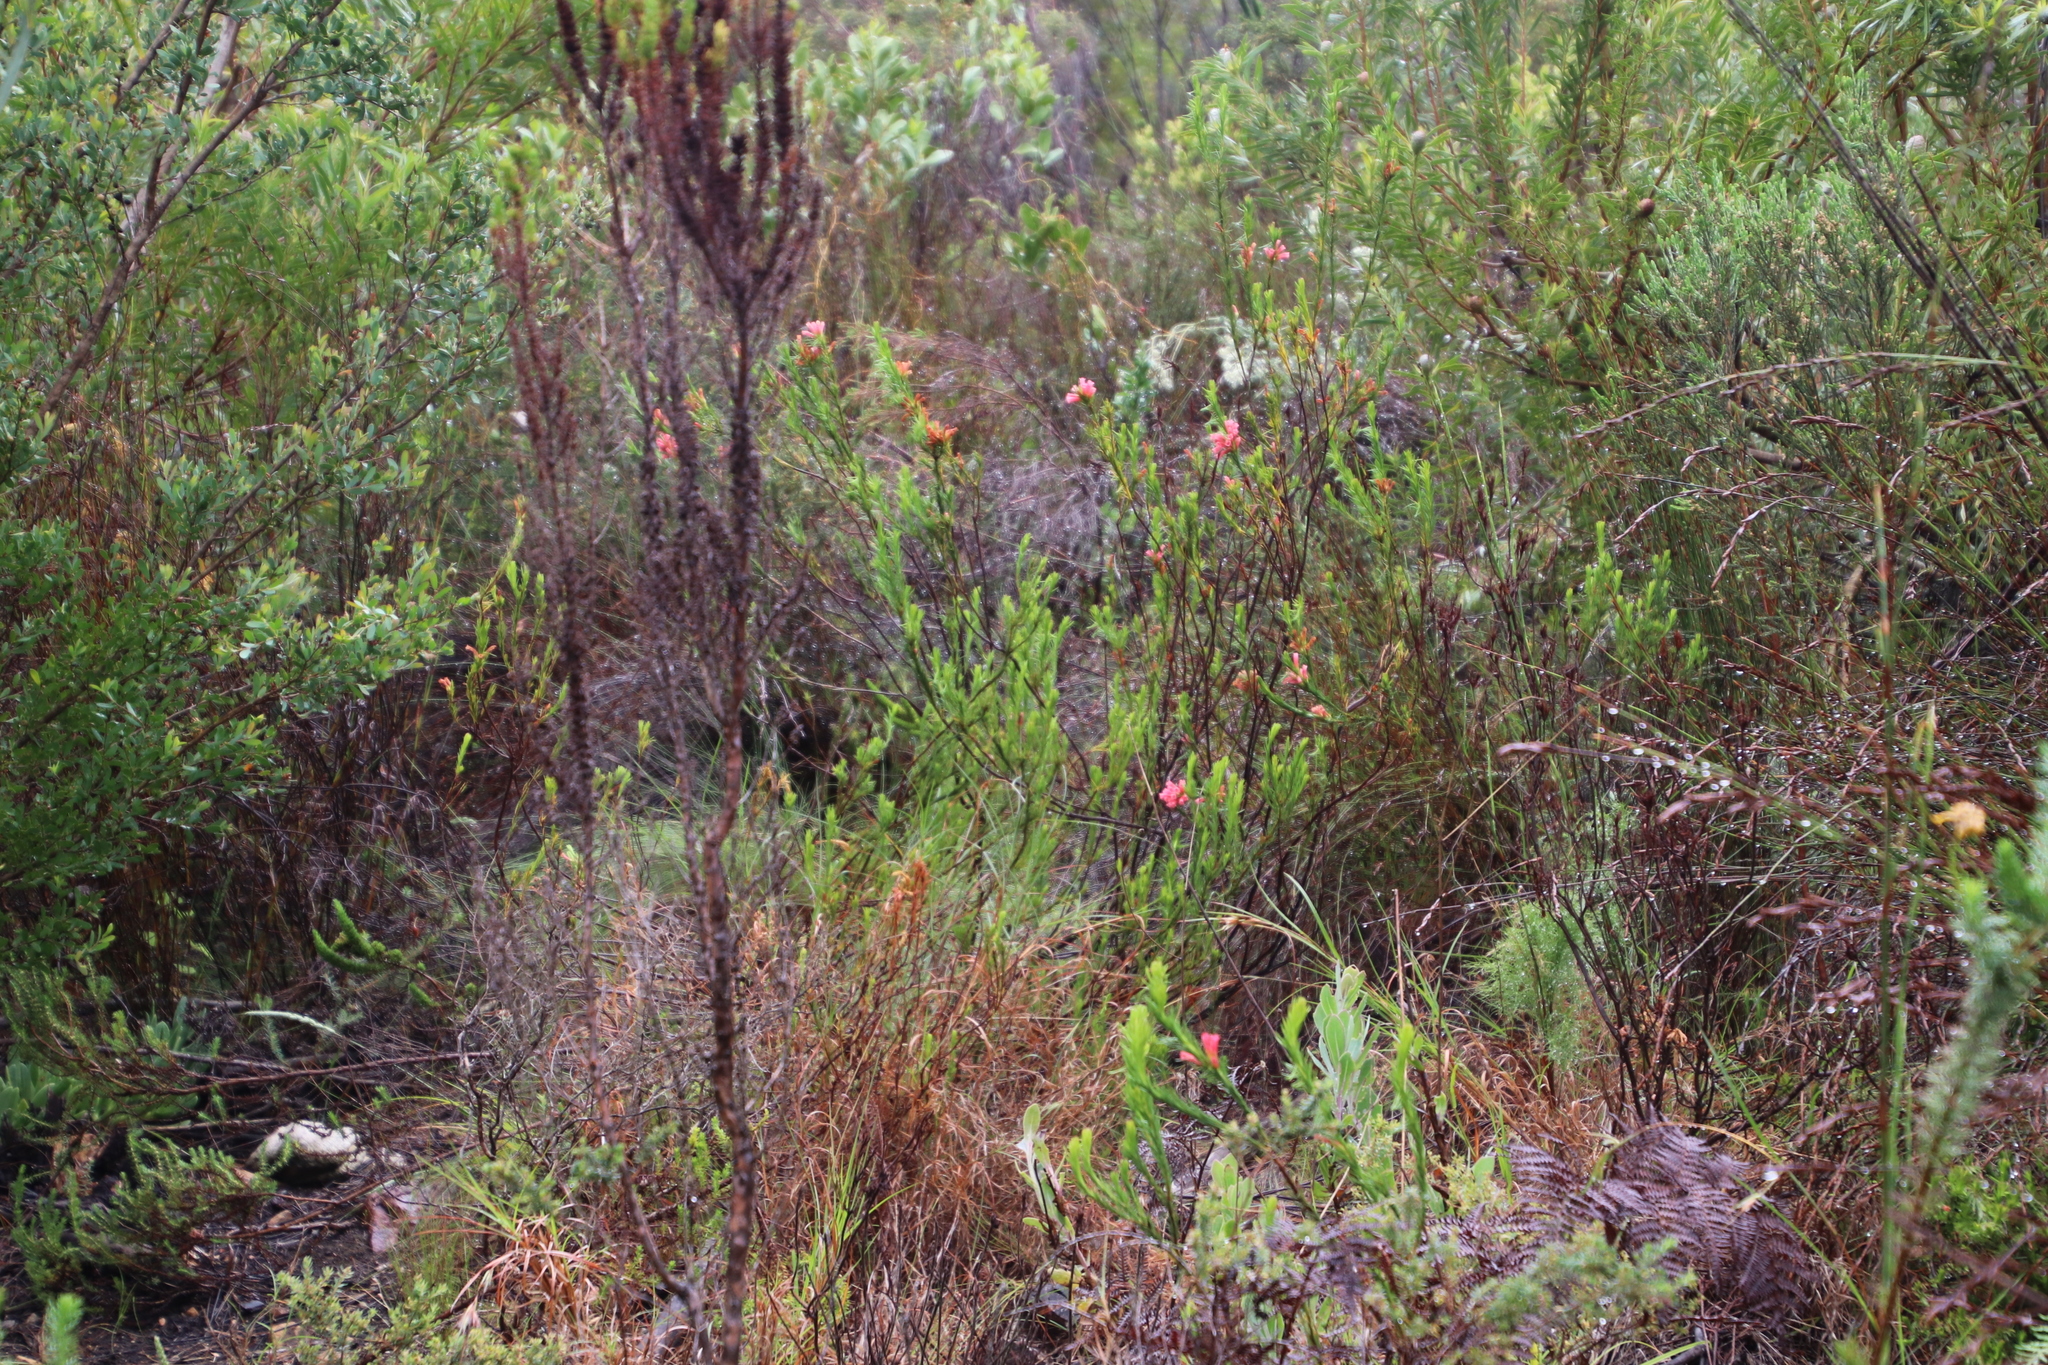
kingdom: Plantae
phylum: Tracheophyta
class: Magnoliopsida
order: Ericales
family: Ericaceae
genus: Erica
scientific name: Erica viscaria
